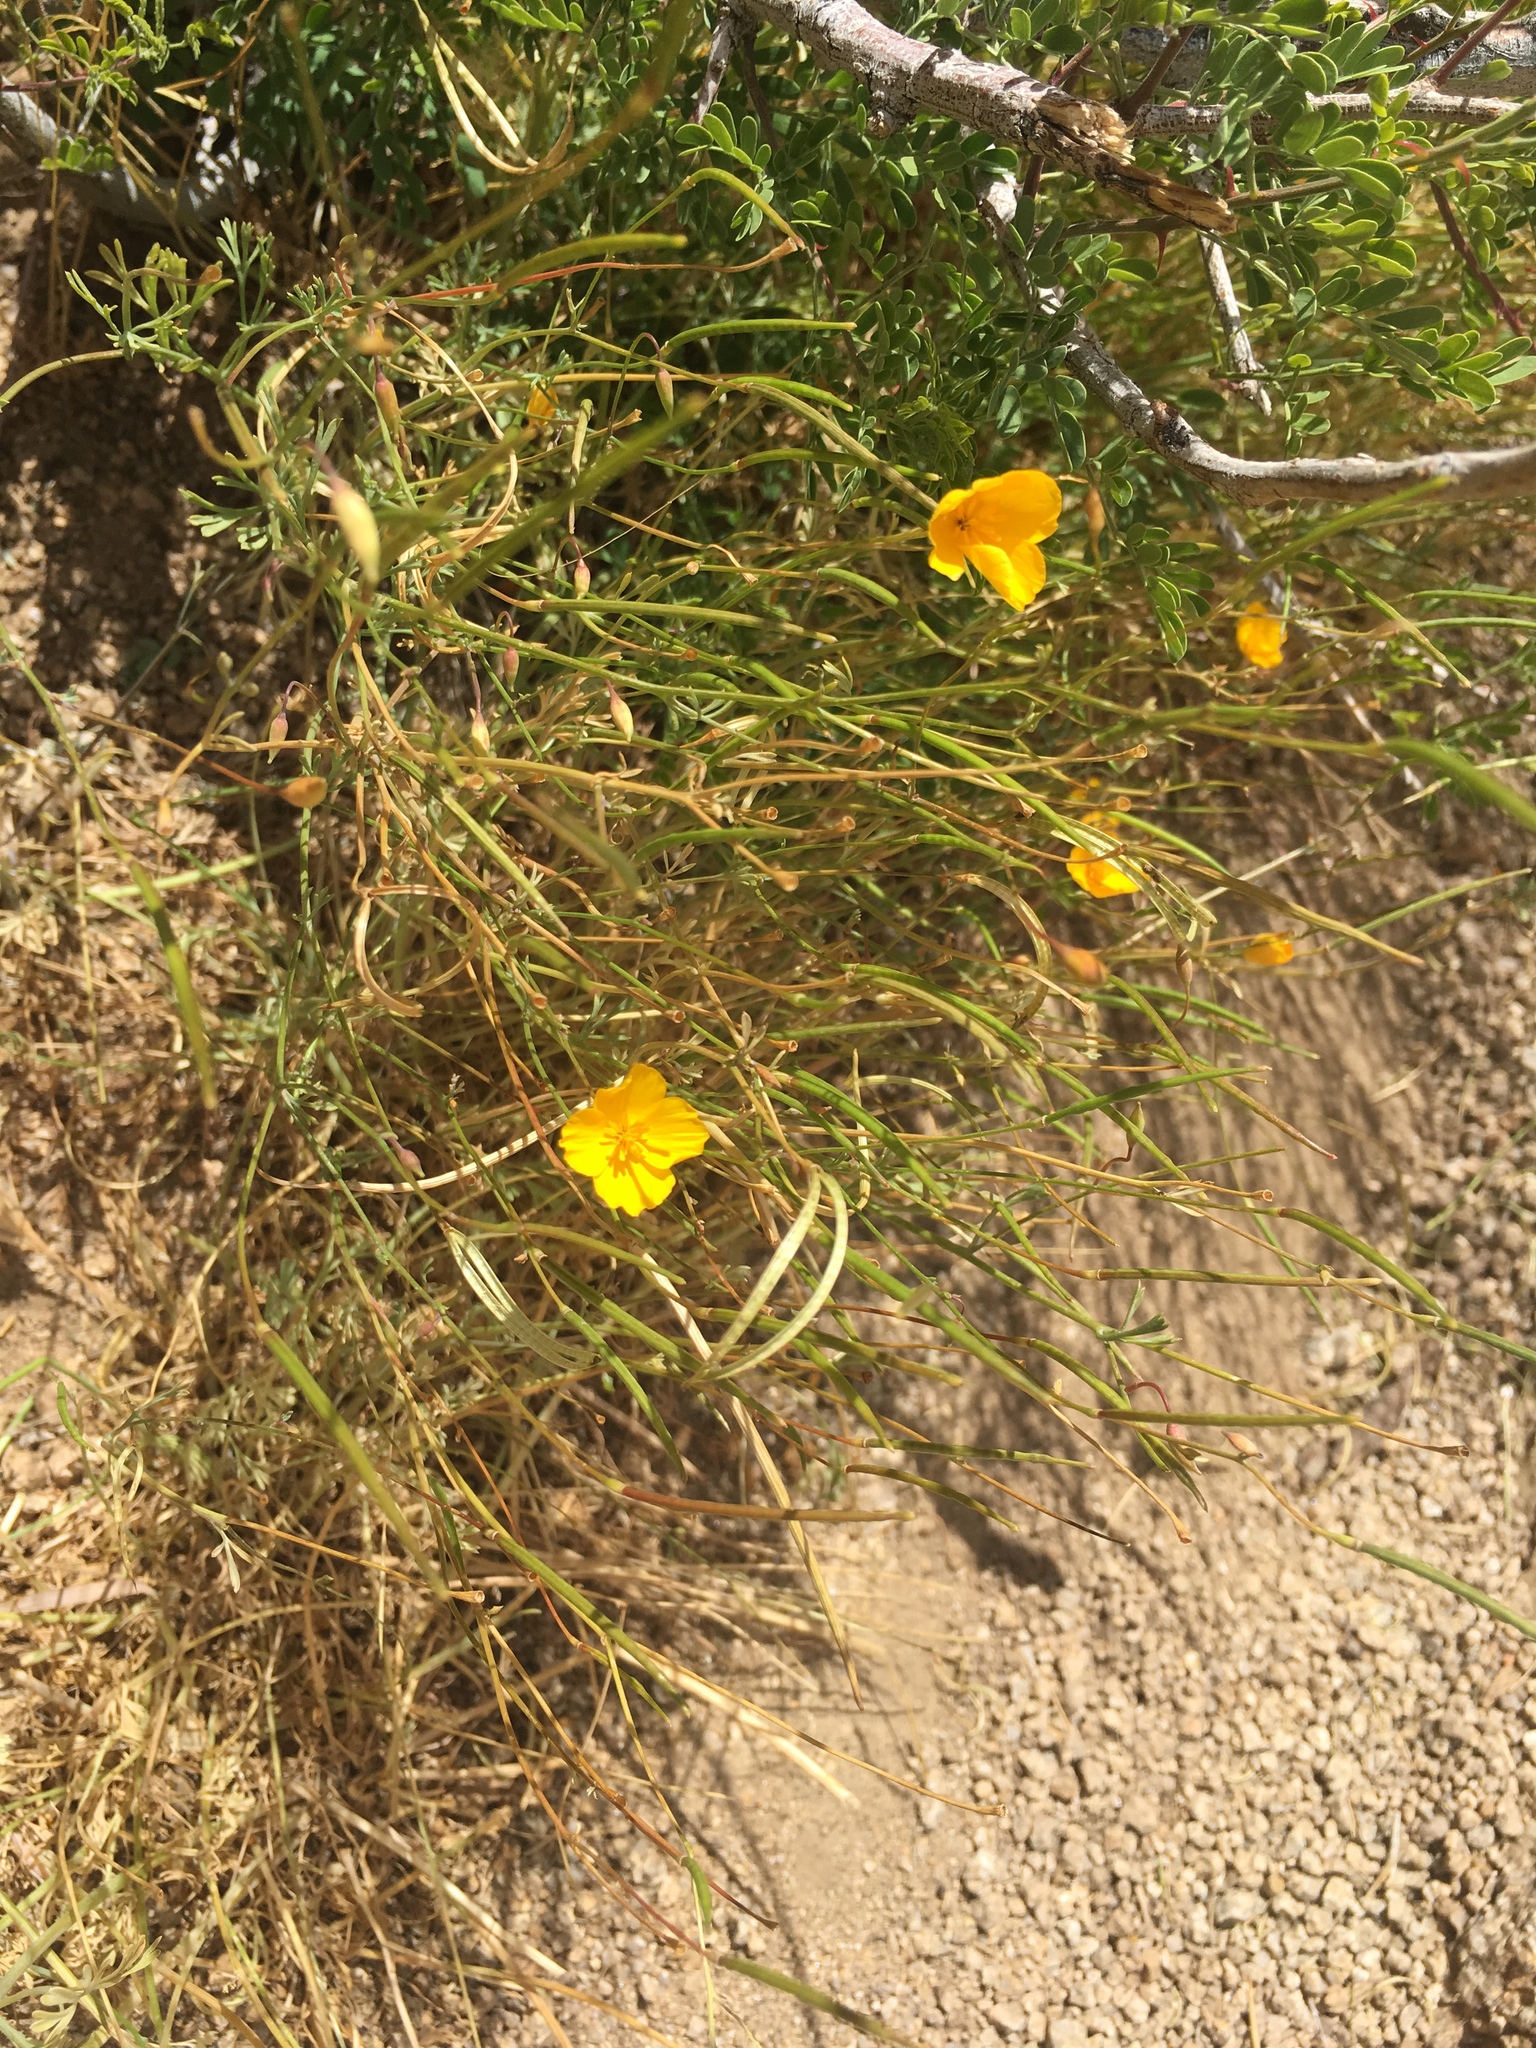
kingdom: Plantae
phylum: Tracheophyta
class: Magnoliopsida
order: Ranunculales
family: Papaveraceae
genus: Eschscholzia
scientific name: Eschscholzia androuxii
